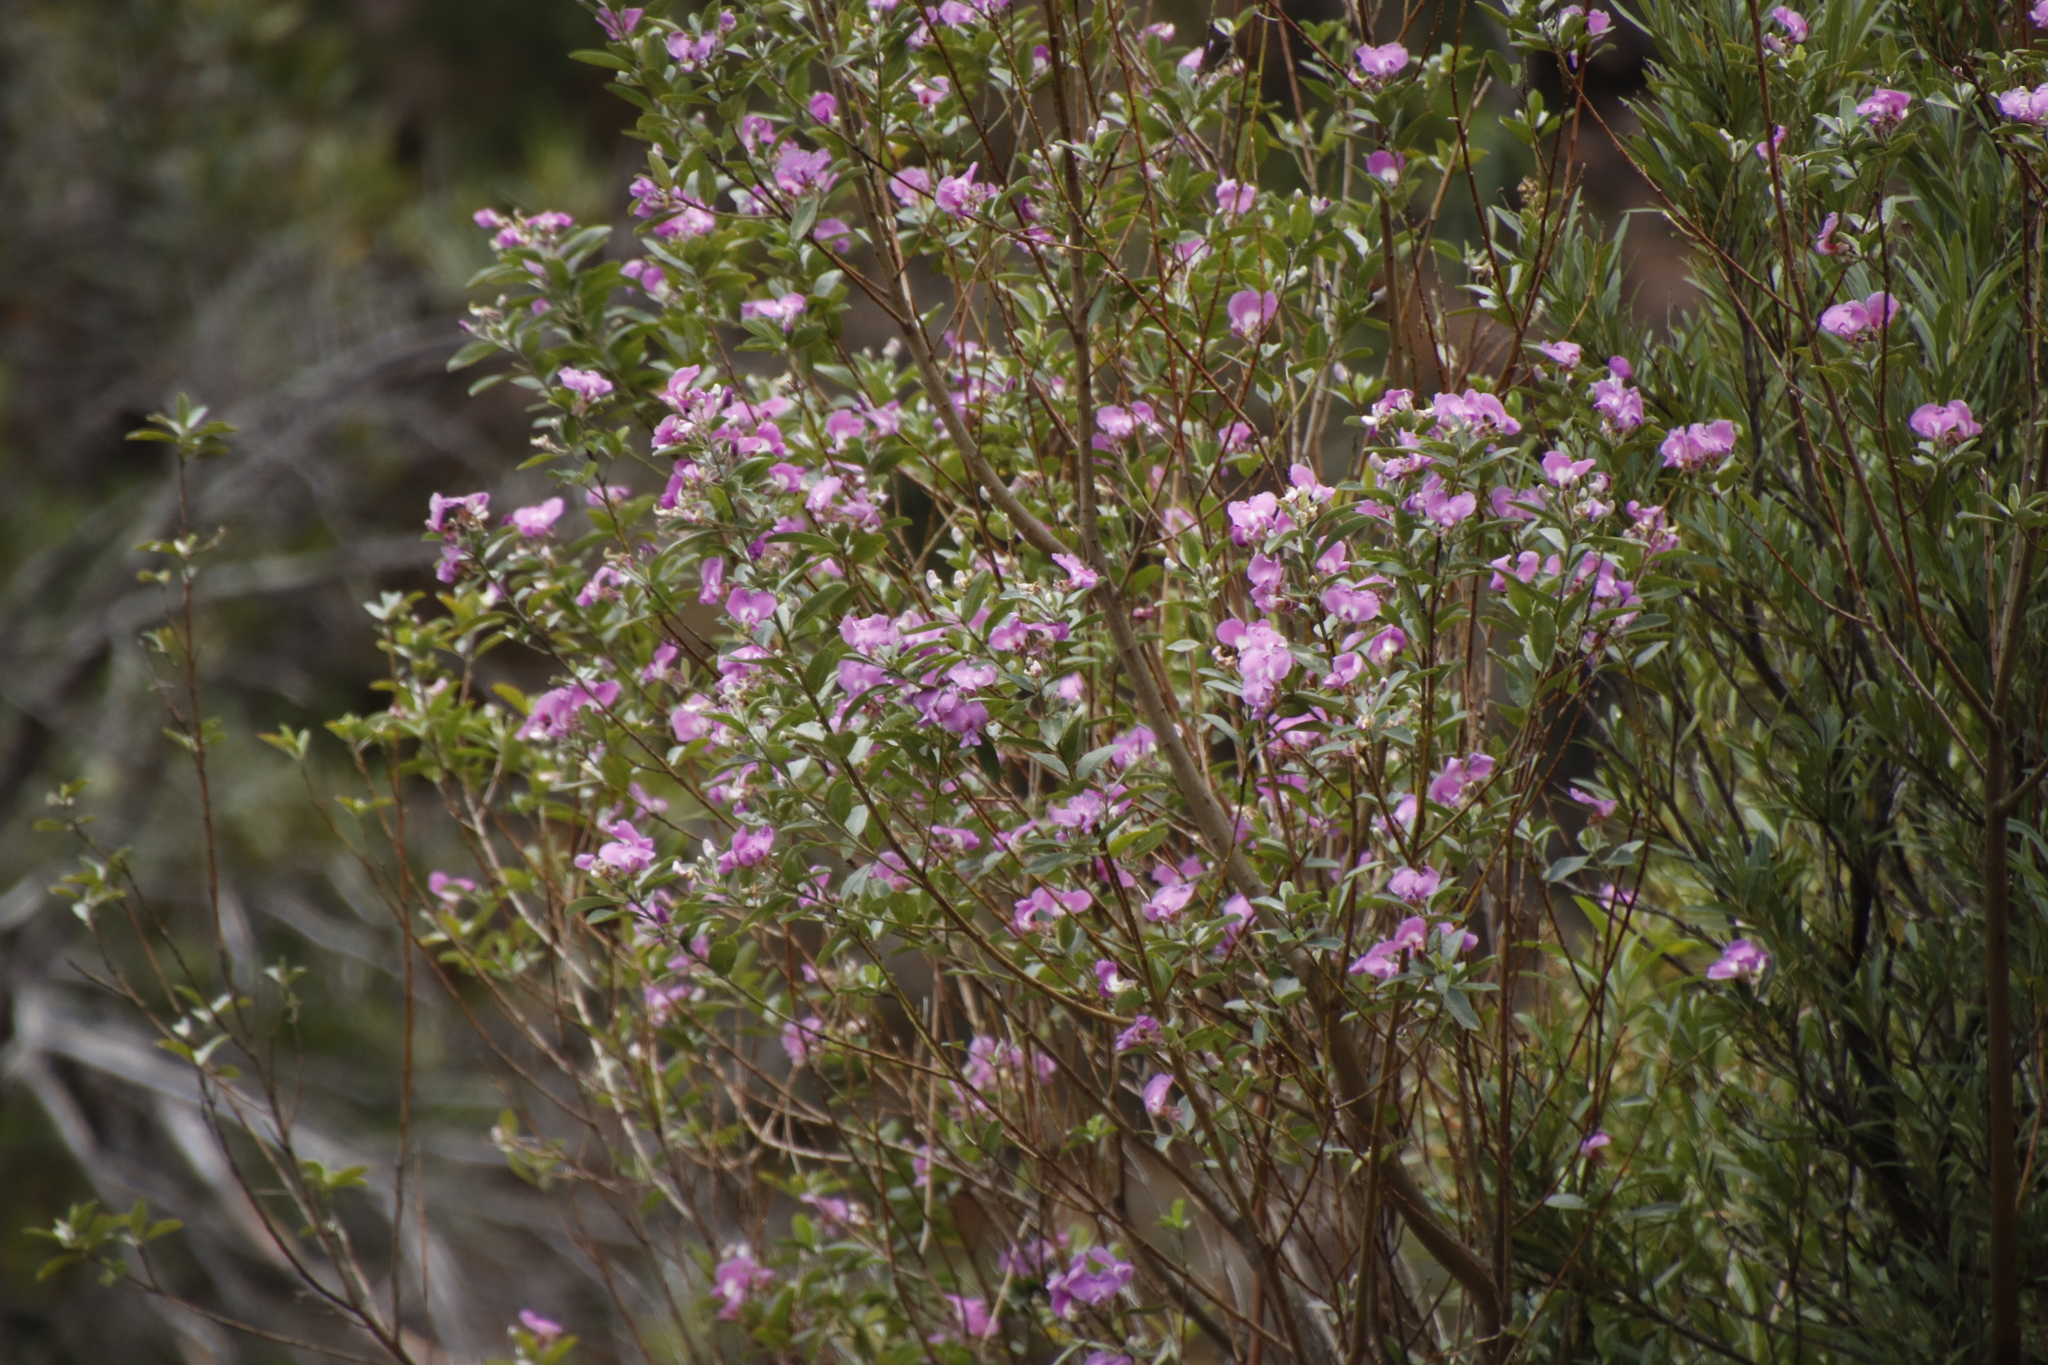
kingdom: Plantae
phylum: Tracheophyta
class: Magnoliopsida
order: Fabales
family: Fabaceae
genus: Podalyria
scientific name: Podalyria calyptrata
